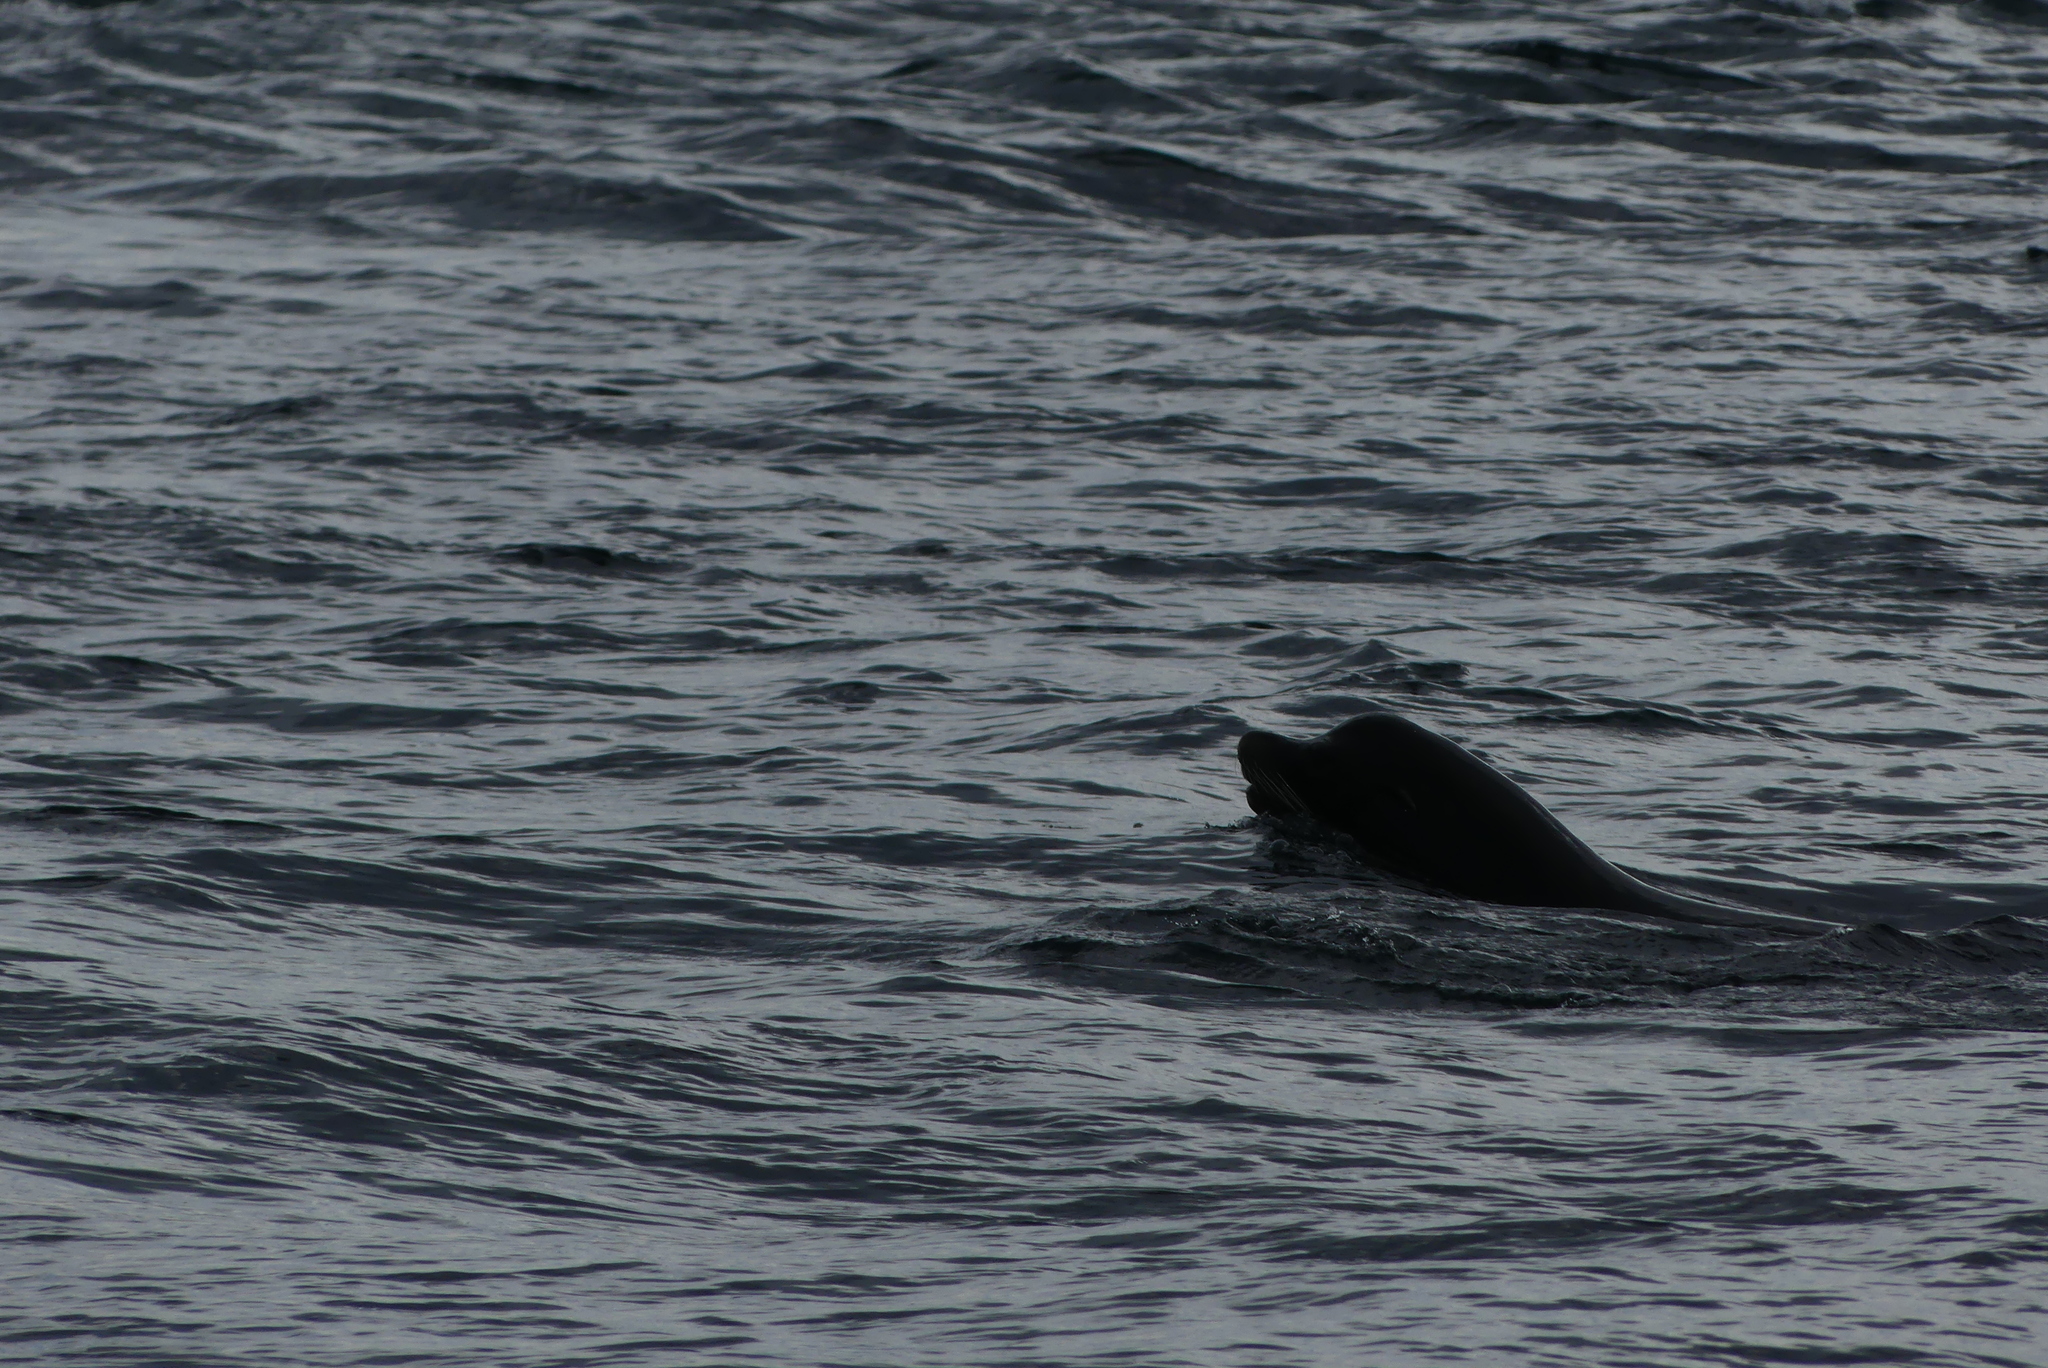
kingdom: Animalia
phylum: Chordata
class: Mammalia
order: Carnivora
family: Otariidae
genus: Zalophus
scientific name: Zalophus californianus
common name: California sea lion
